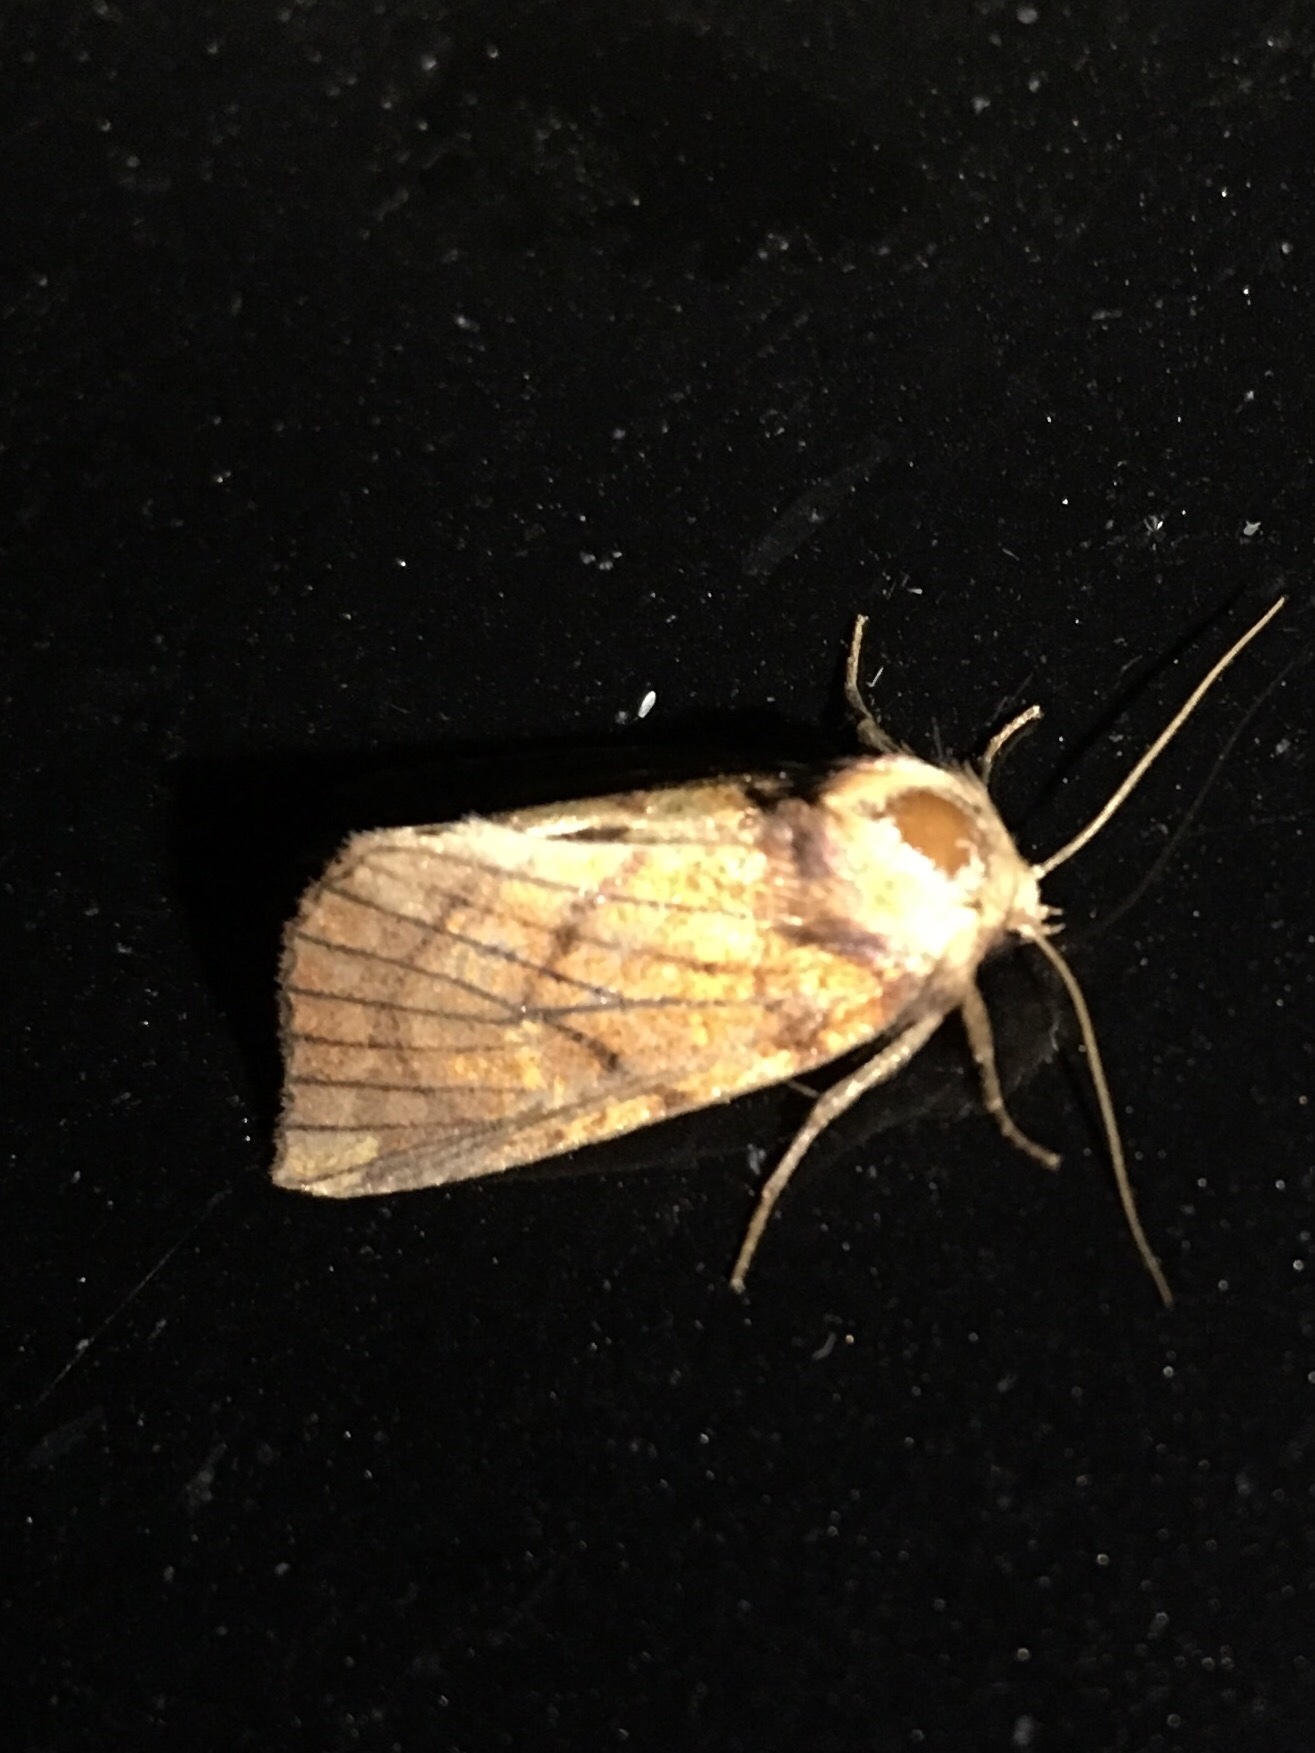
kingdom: Animalia
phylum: Arthropoda
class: Insecta
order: Lepidoptera
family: Noctuidae
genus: Papaipema
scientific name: Papaipema inquaesita
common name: Sensitive fern borer moth
